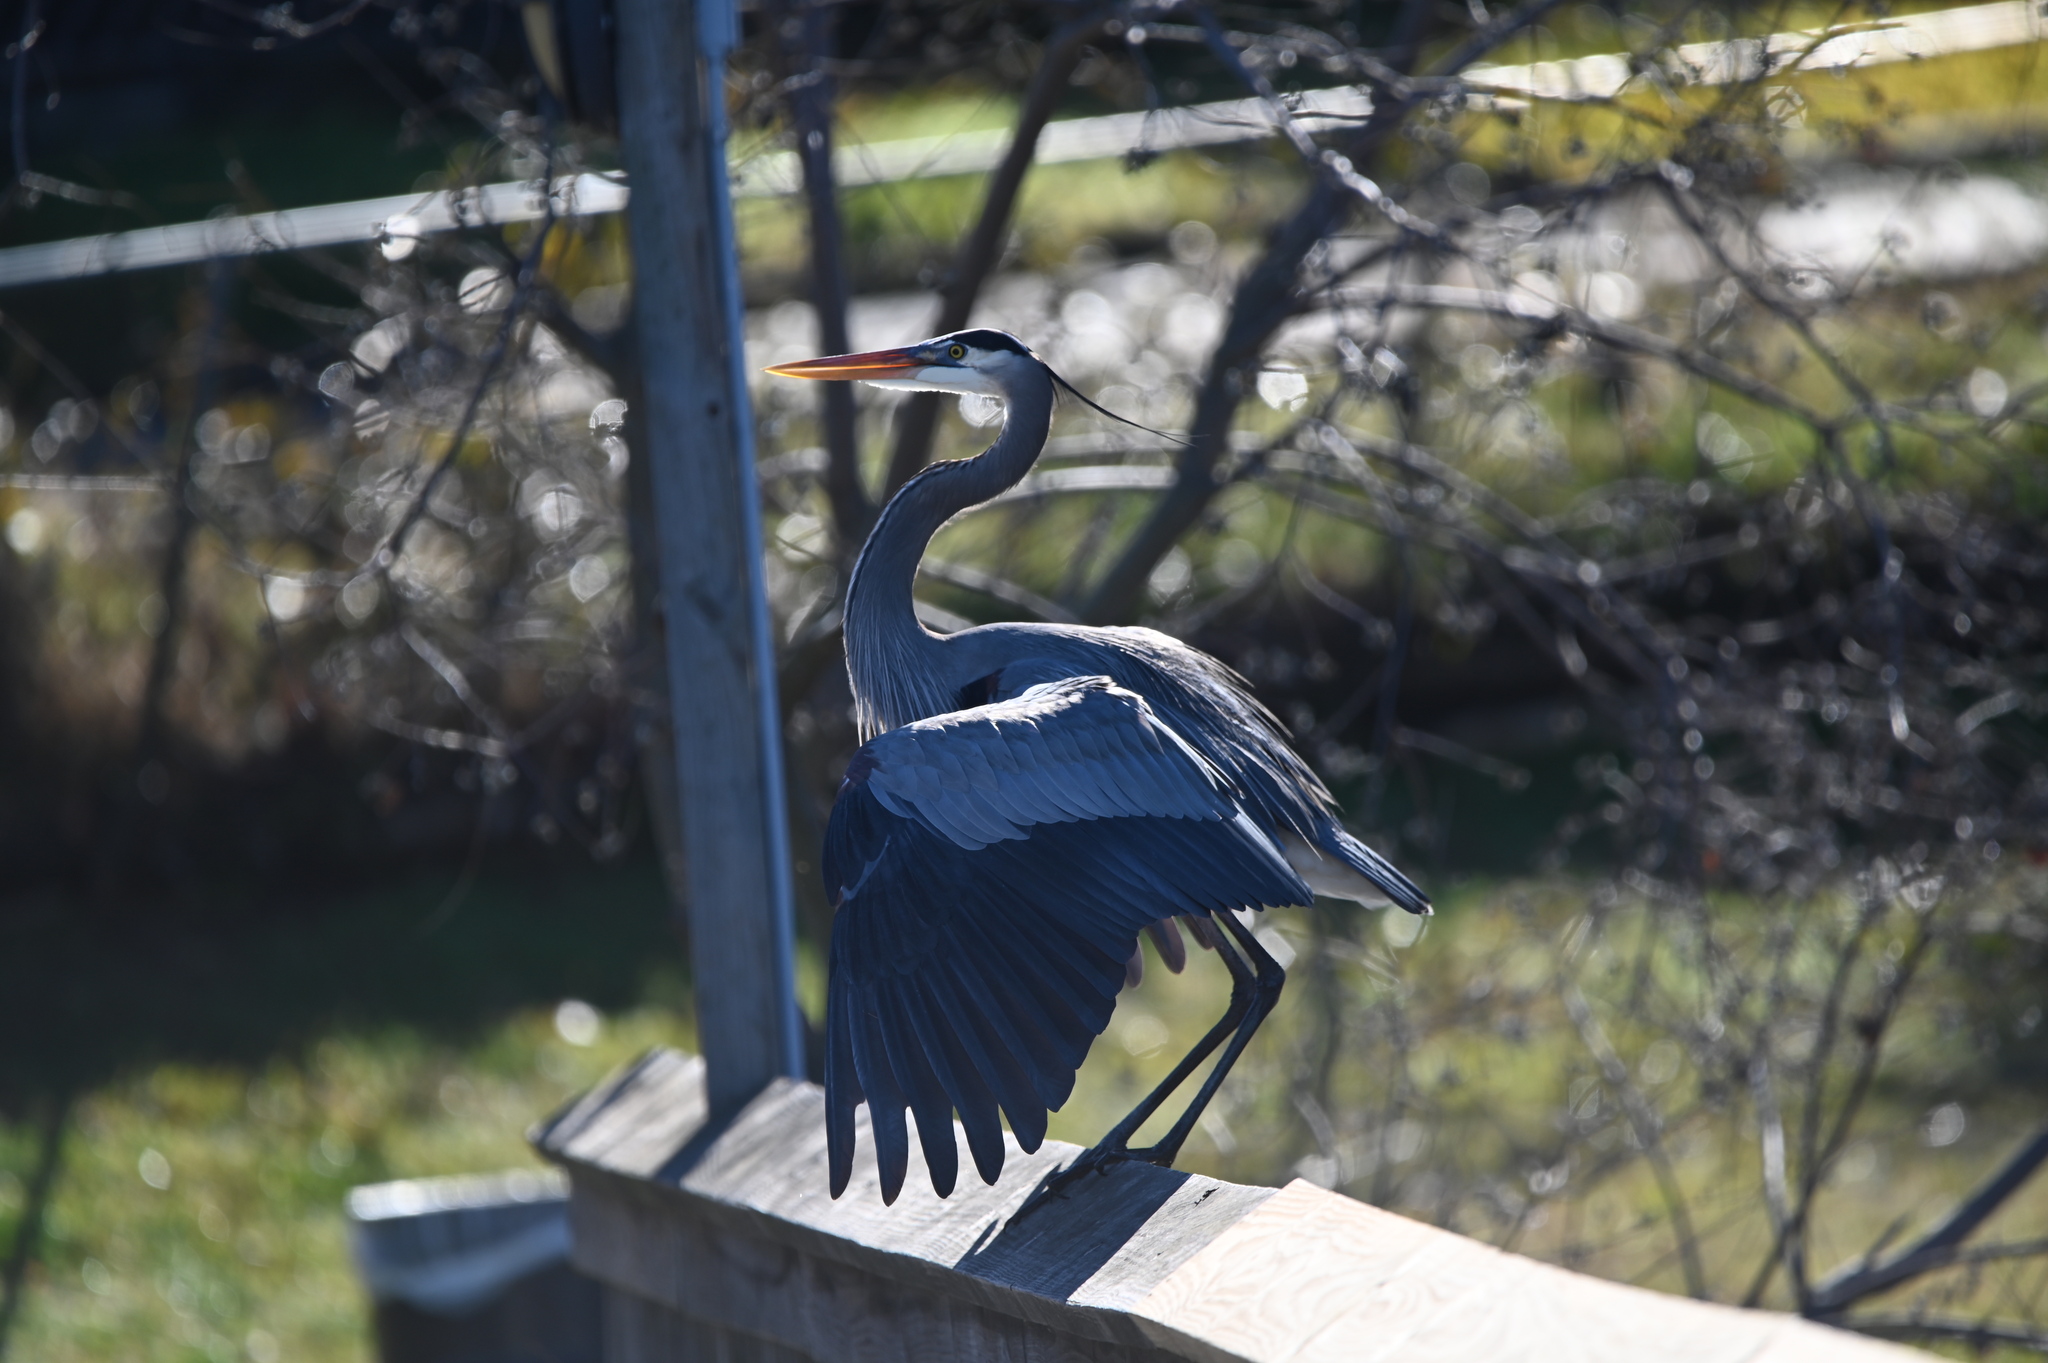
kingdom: Animalia
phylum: Chordata
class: Aves
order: Pelecaniformes
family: Ardeidae
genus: Ardea
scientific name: Ardea herodias
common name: Great blue heron
